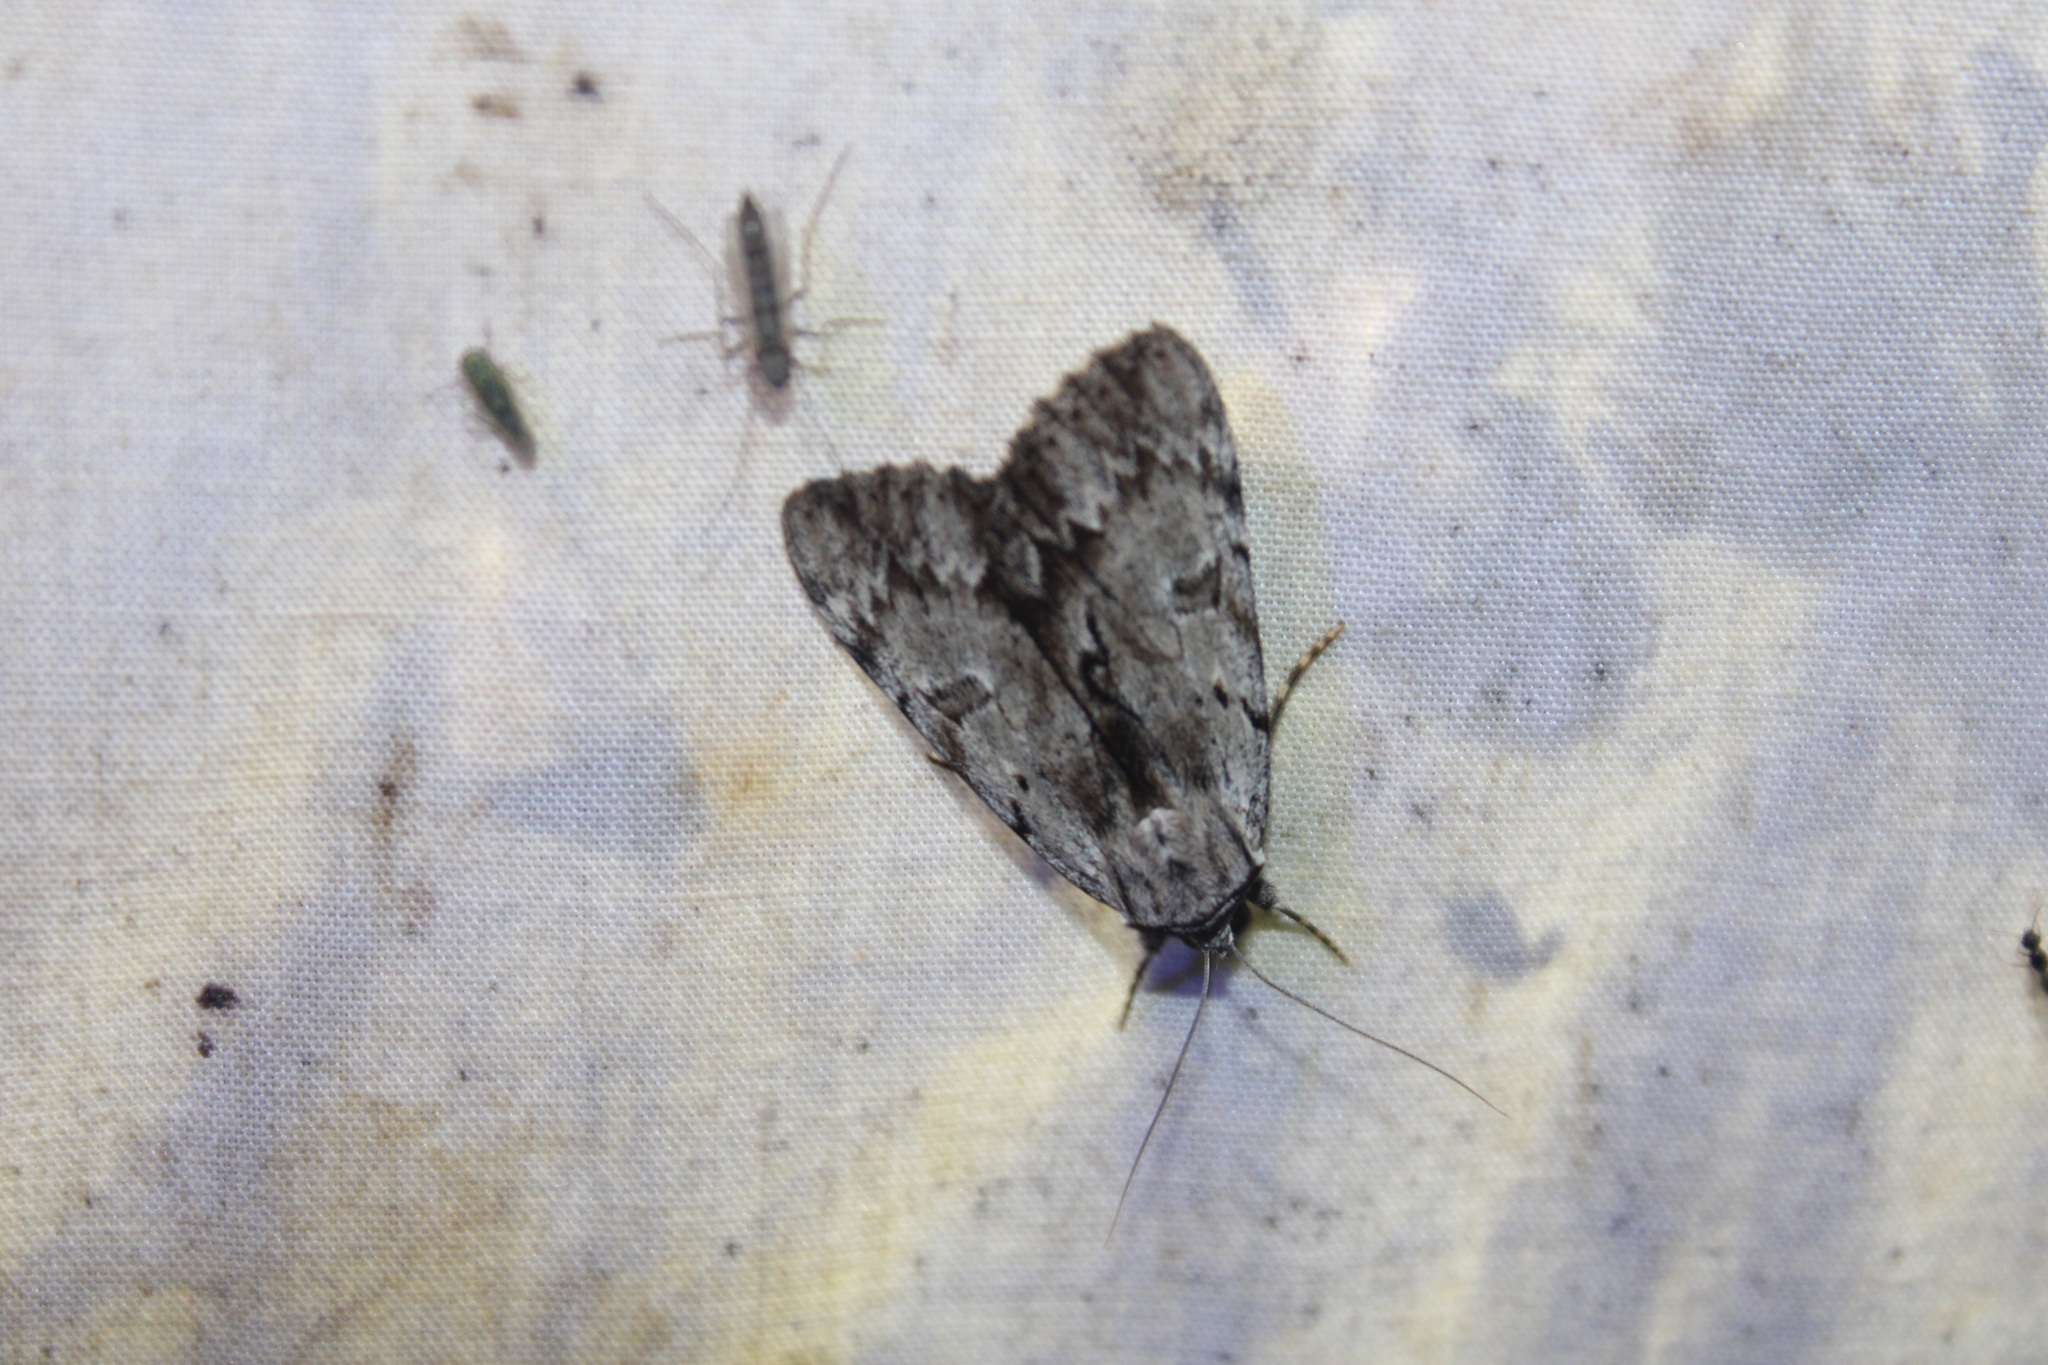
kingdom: Animalia
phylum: Arthropoda
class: Insecta
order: Lepidoptera
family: Erebidae
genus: Catocala
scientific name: Catocala gracilis
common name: Graceful underwing
